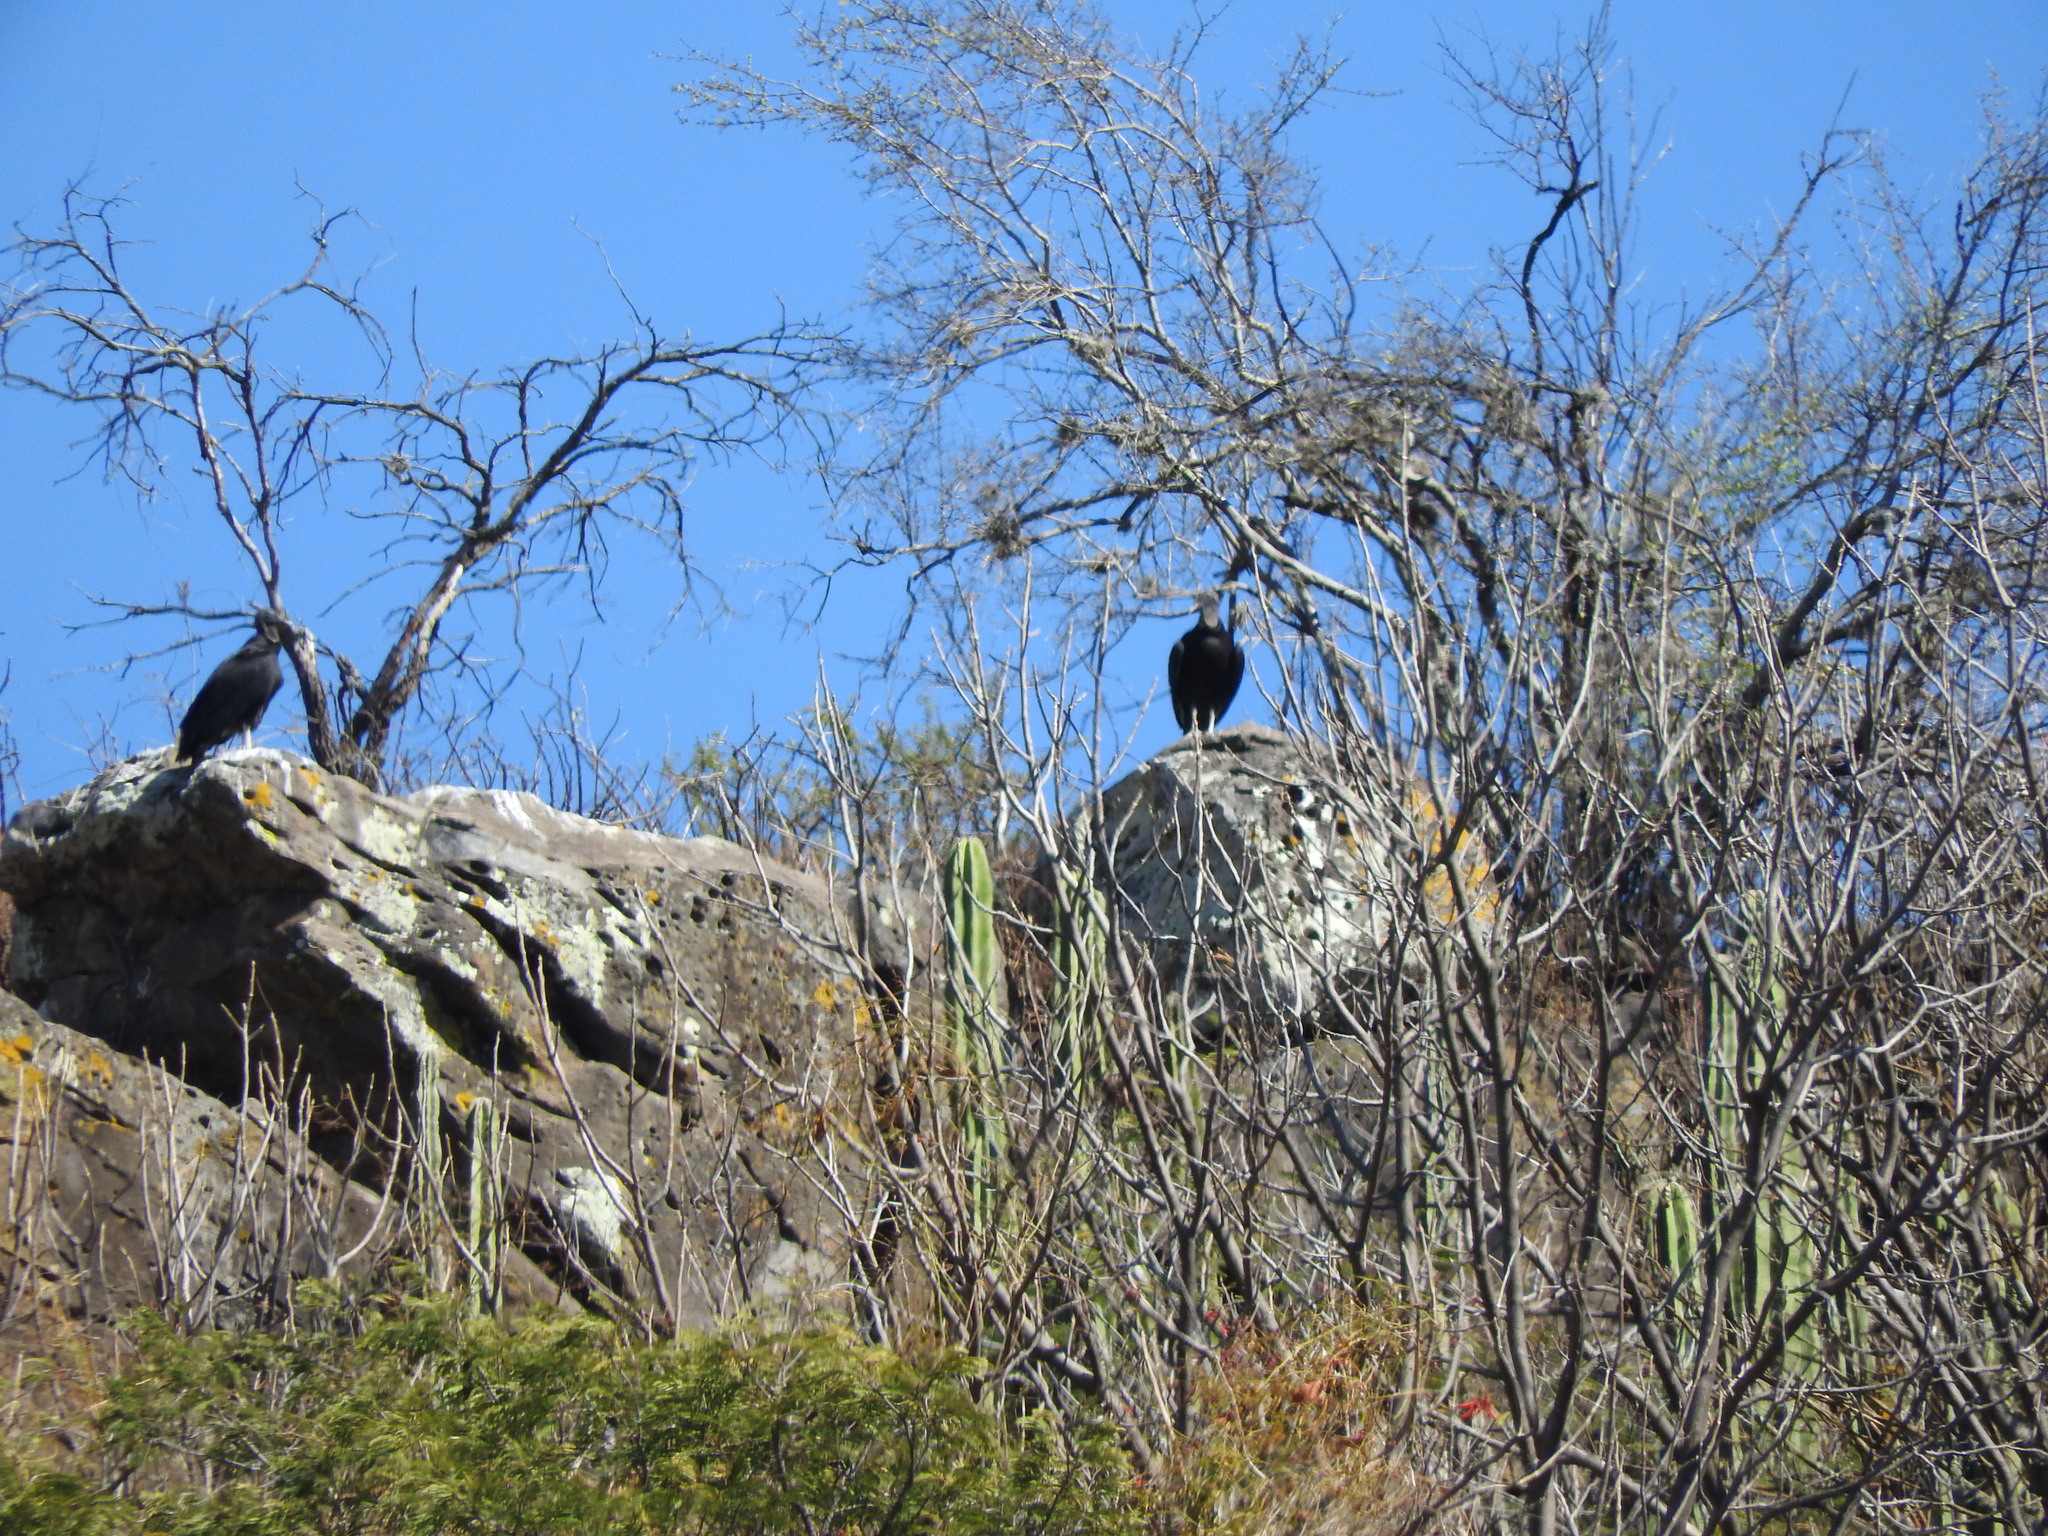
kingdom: Animalia
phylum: Chordata
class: Aves
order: Accipitriformes
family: Cathartidae
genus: Coragyps
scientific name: Coragyps atratus
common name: Black vulture
